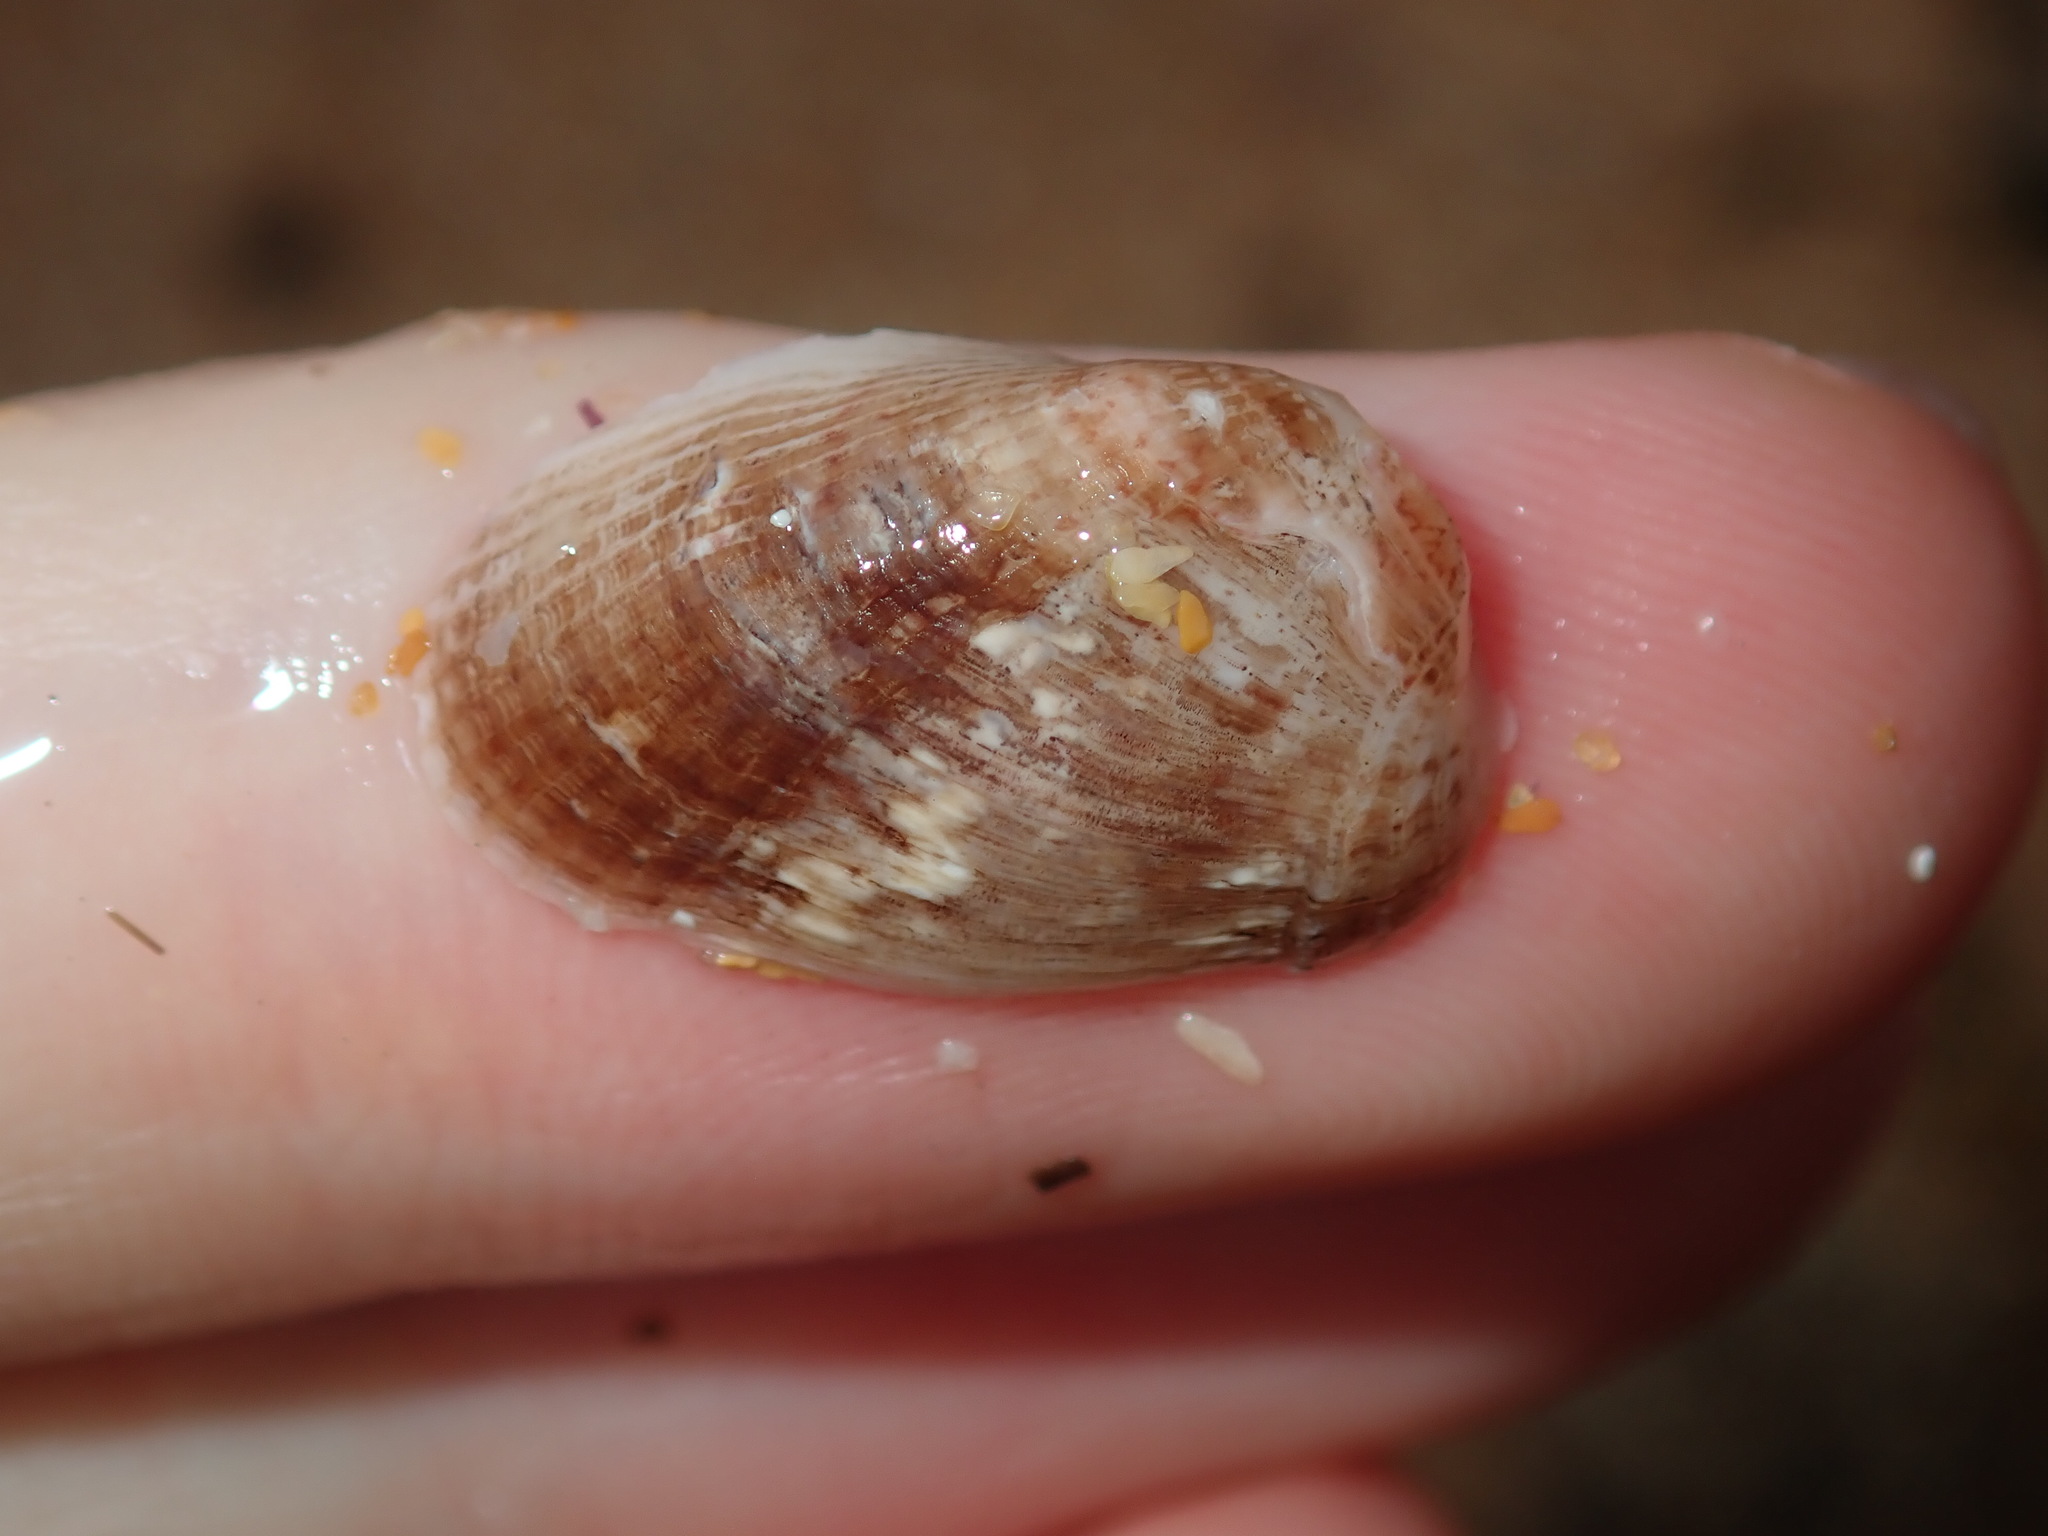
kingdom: Animalia
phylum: Mollusca
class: Bivalvia
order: Mytilida
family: Mytilidae
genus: Musculus
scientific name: Musculus impactus
